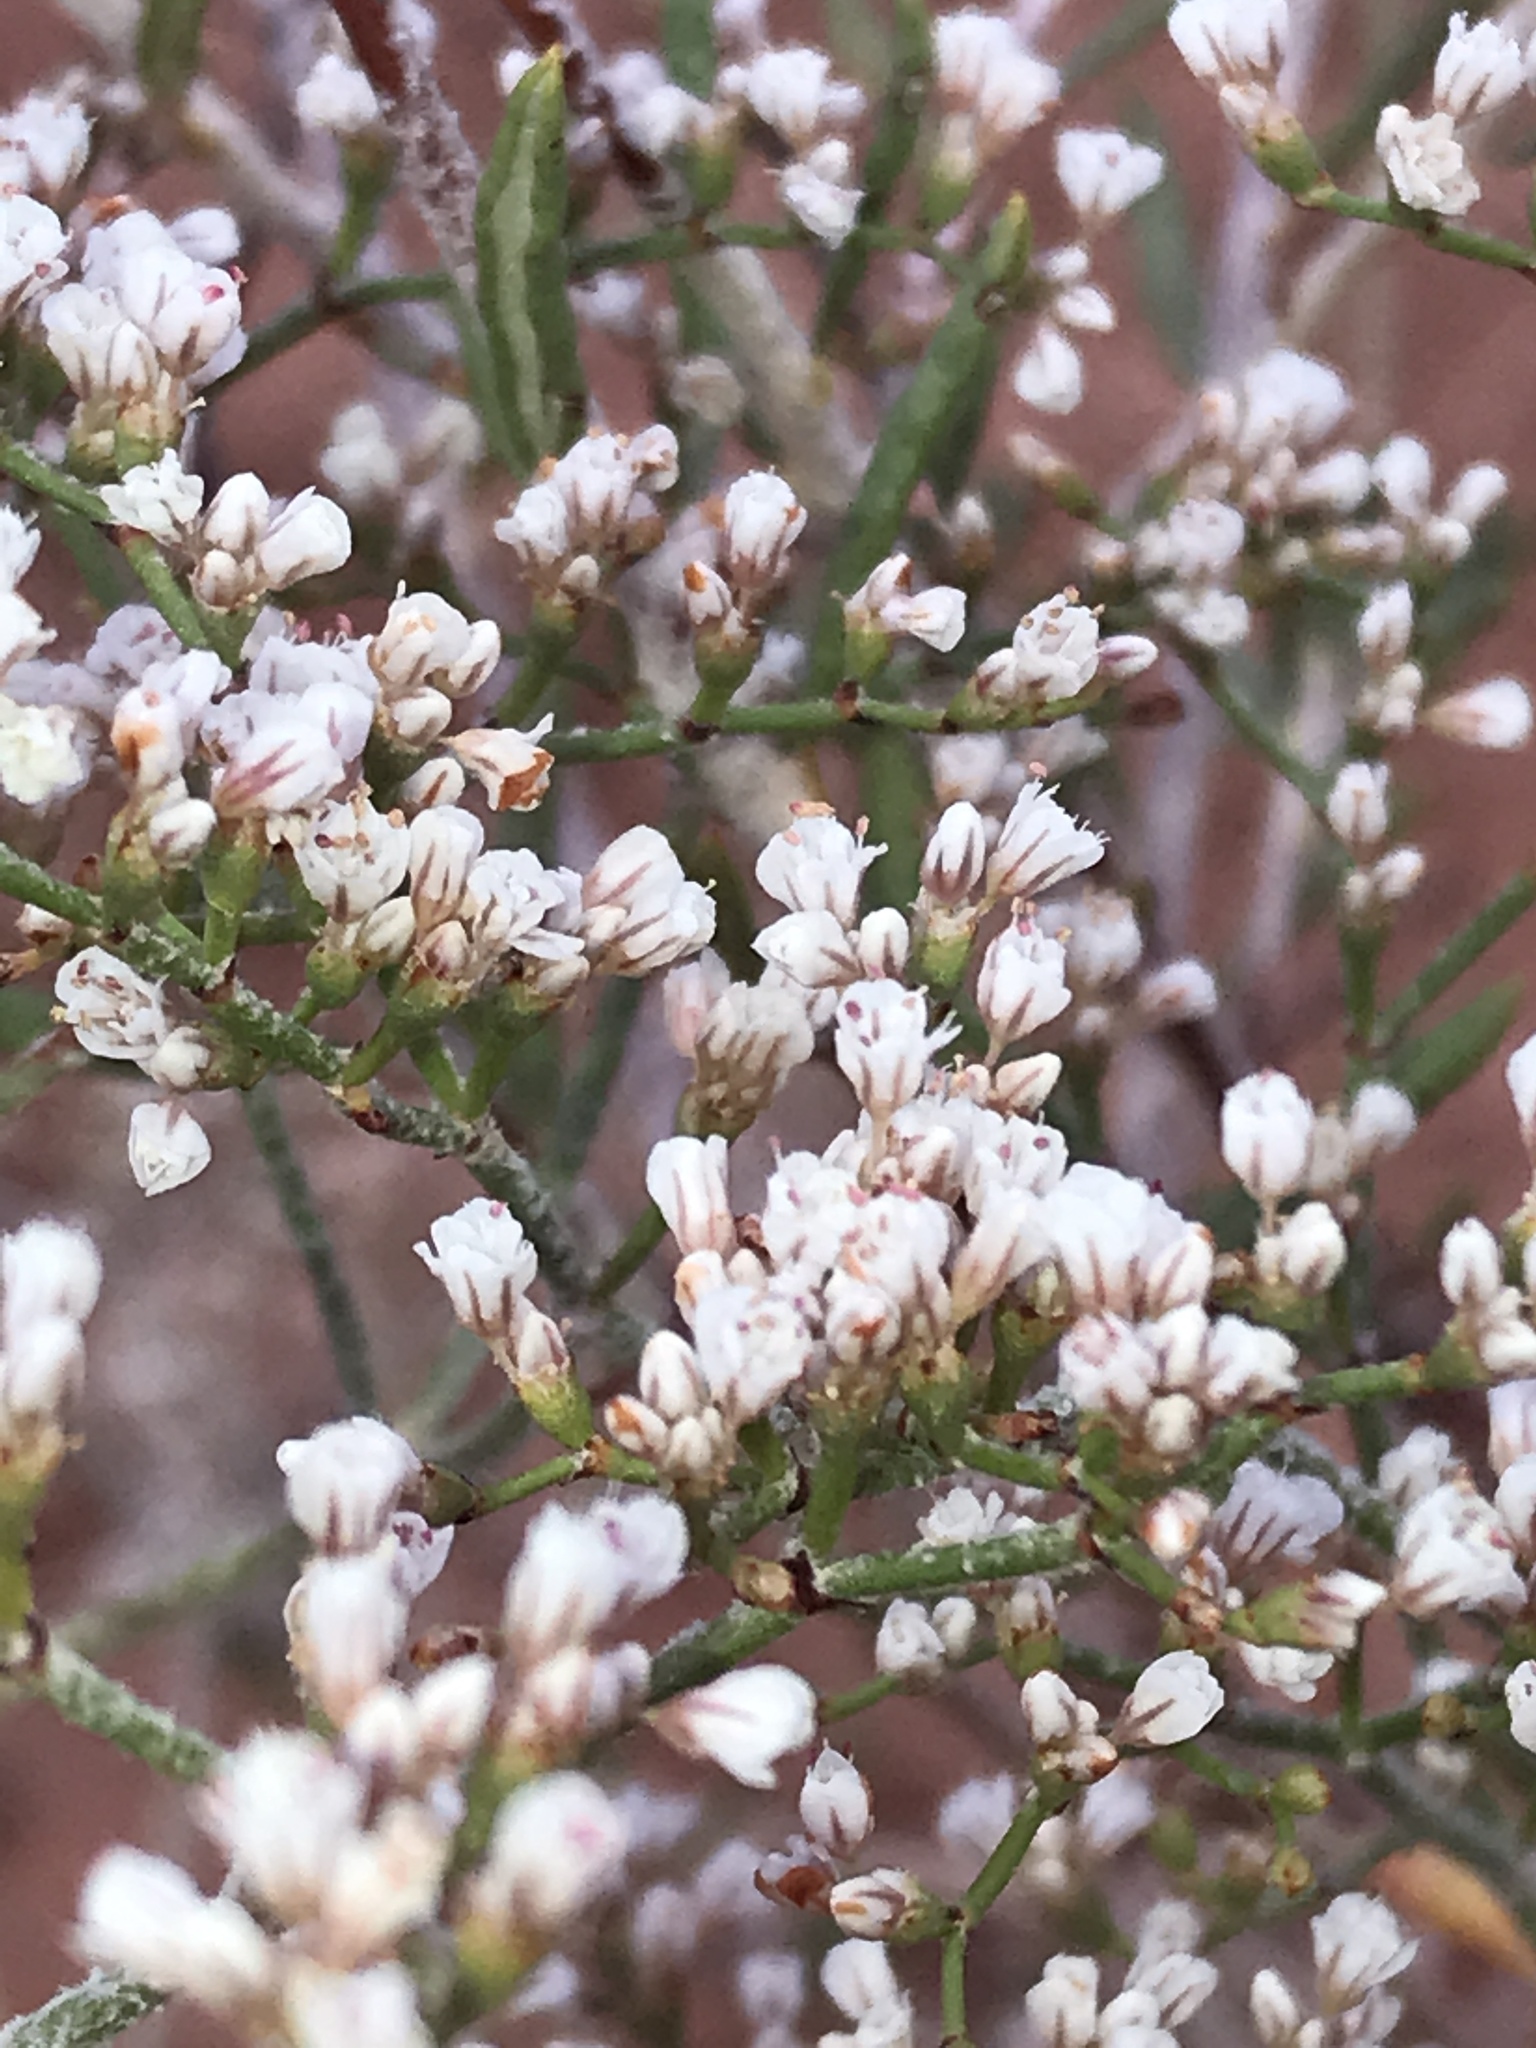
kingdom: Plantae
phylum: Tracheophyta
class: Magnoliopsida
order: Caryophyllales
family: Polygonaceae
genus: Eriogonum
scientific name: Eriogonum microtheca
